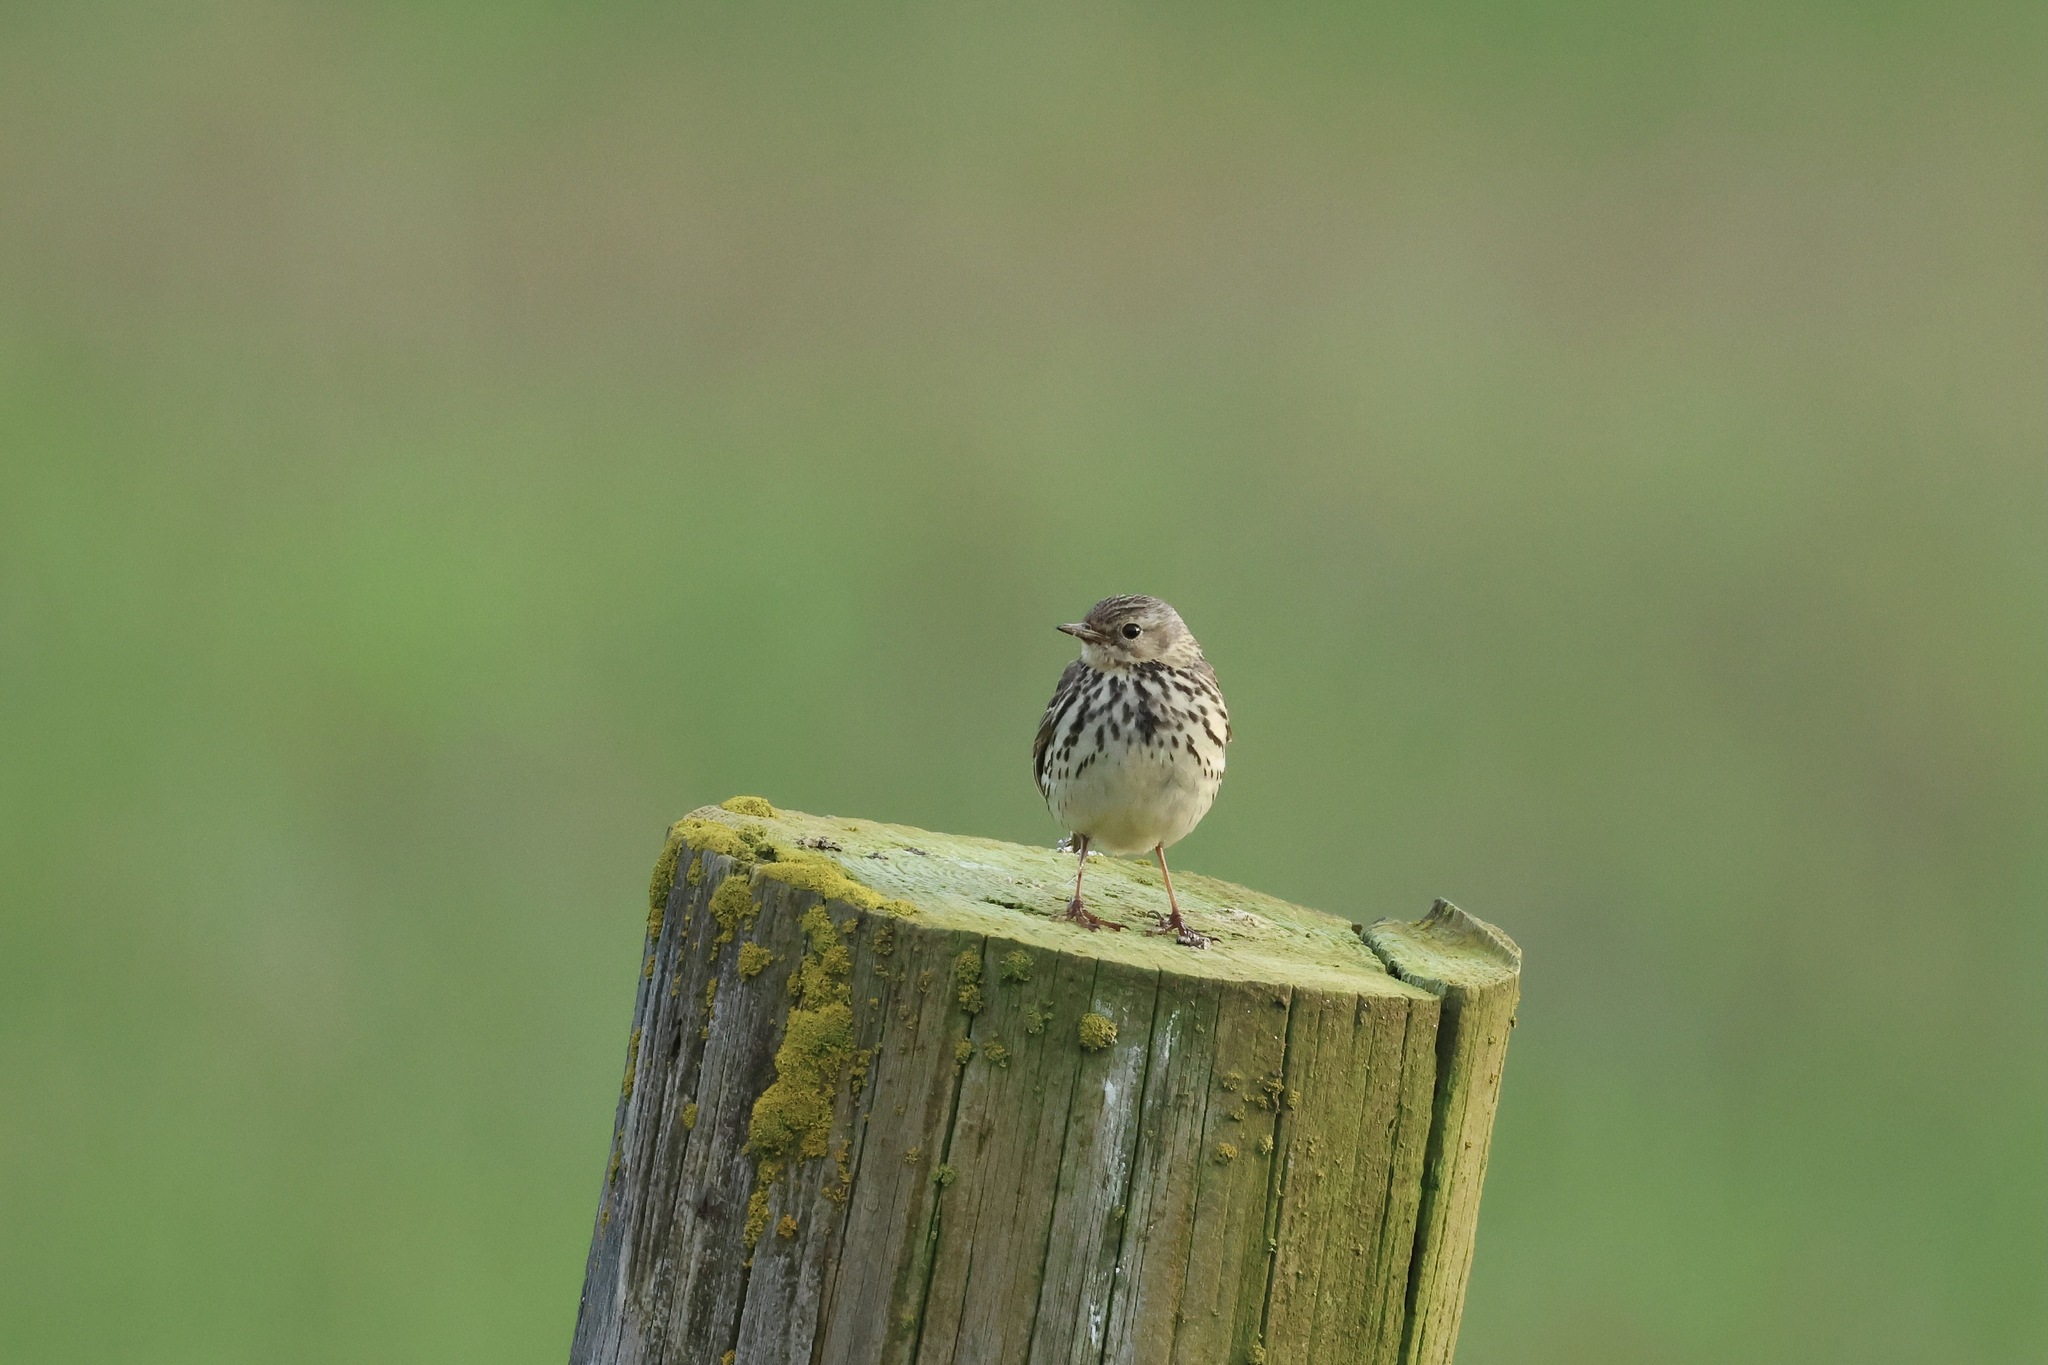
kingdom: Animalia
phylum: Chordata
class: Aves
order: Passeriformes
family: Motacillidae
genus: Anthus
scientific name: Anthus pratensis
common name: Meadow pipit
